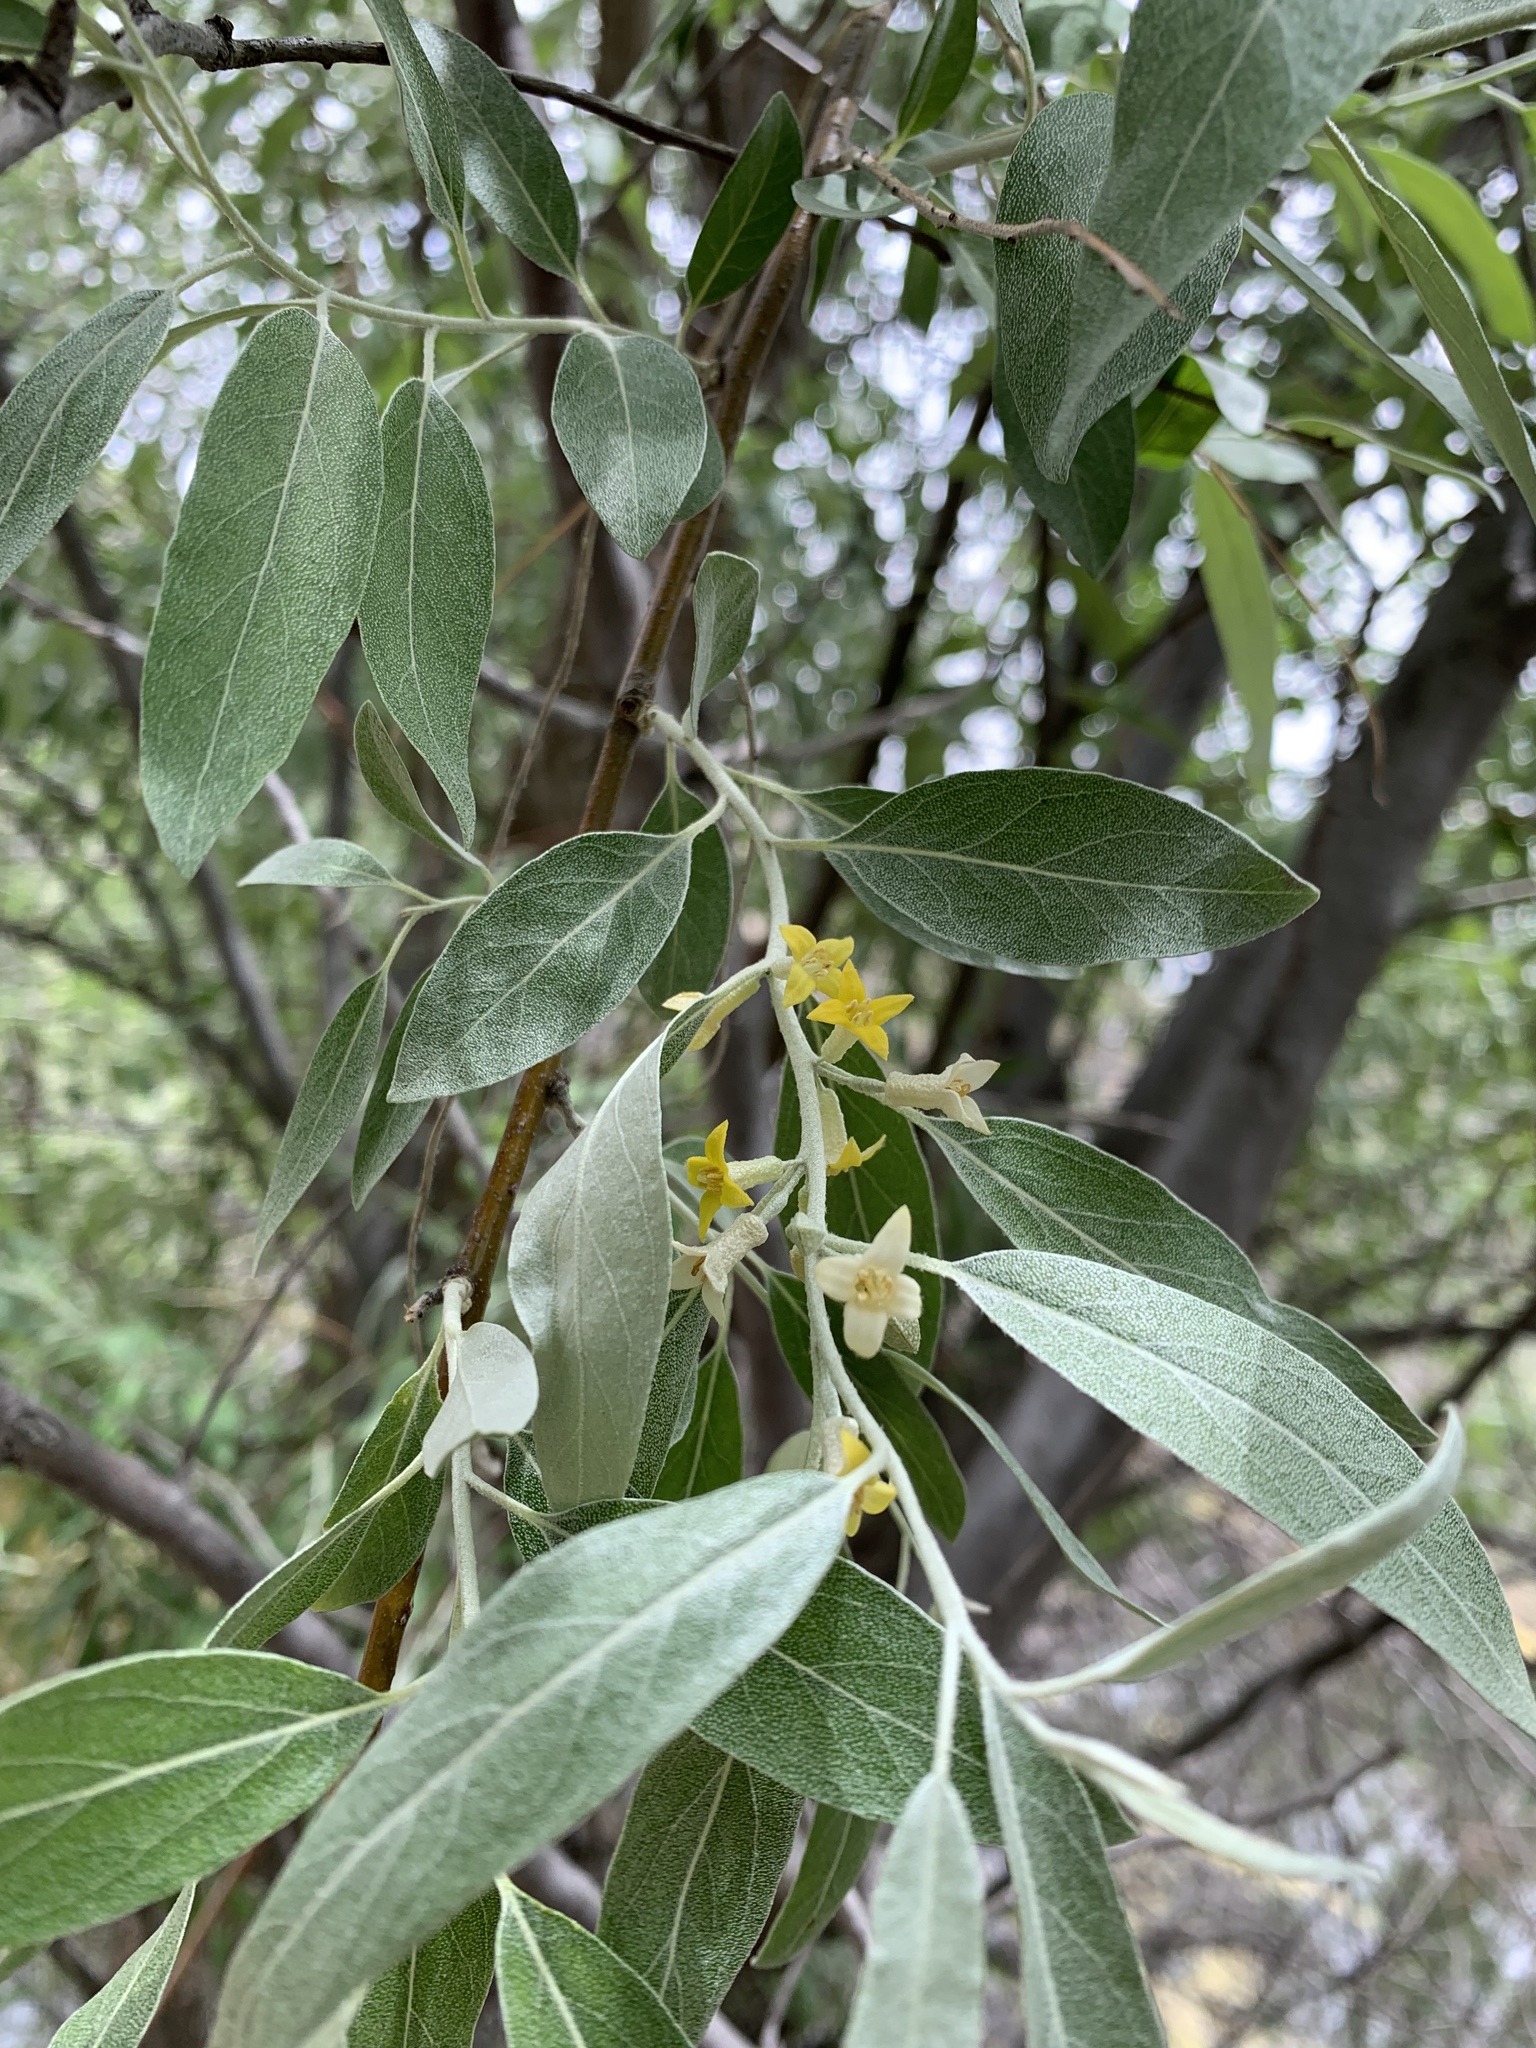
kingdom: Plantae
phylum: Tracheophyta
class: Magnoliopsida
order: Rosales
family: Elaeagnaceae
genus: Elaeagnus
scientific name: Elaeagnus angustifolia
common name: Russian olive
